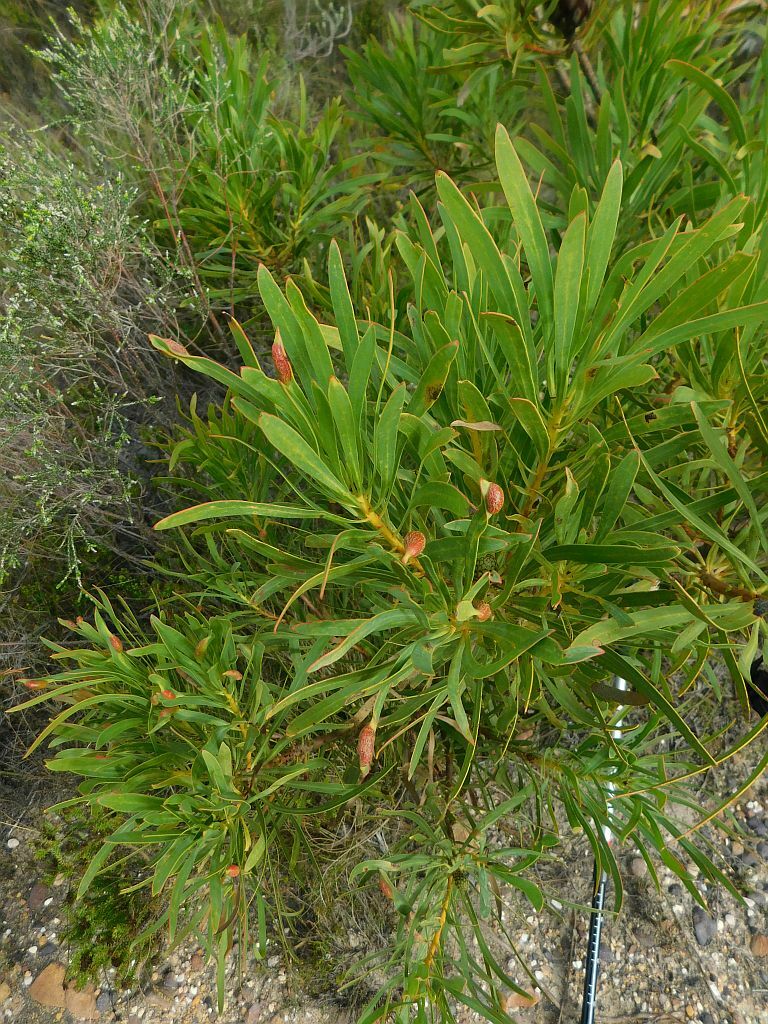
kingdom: Plantae
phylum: Tracheophyta
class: Magnoliopsida
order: Proteales
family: Proteaceae
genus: Protea
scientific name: Protea repens
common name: Sugarbush
